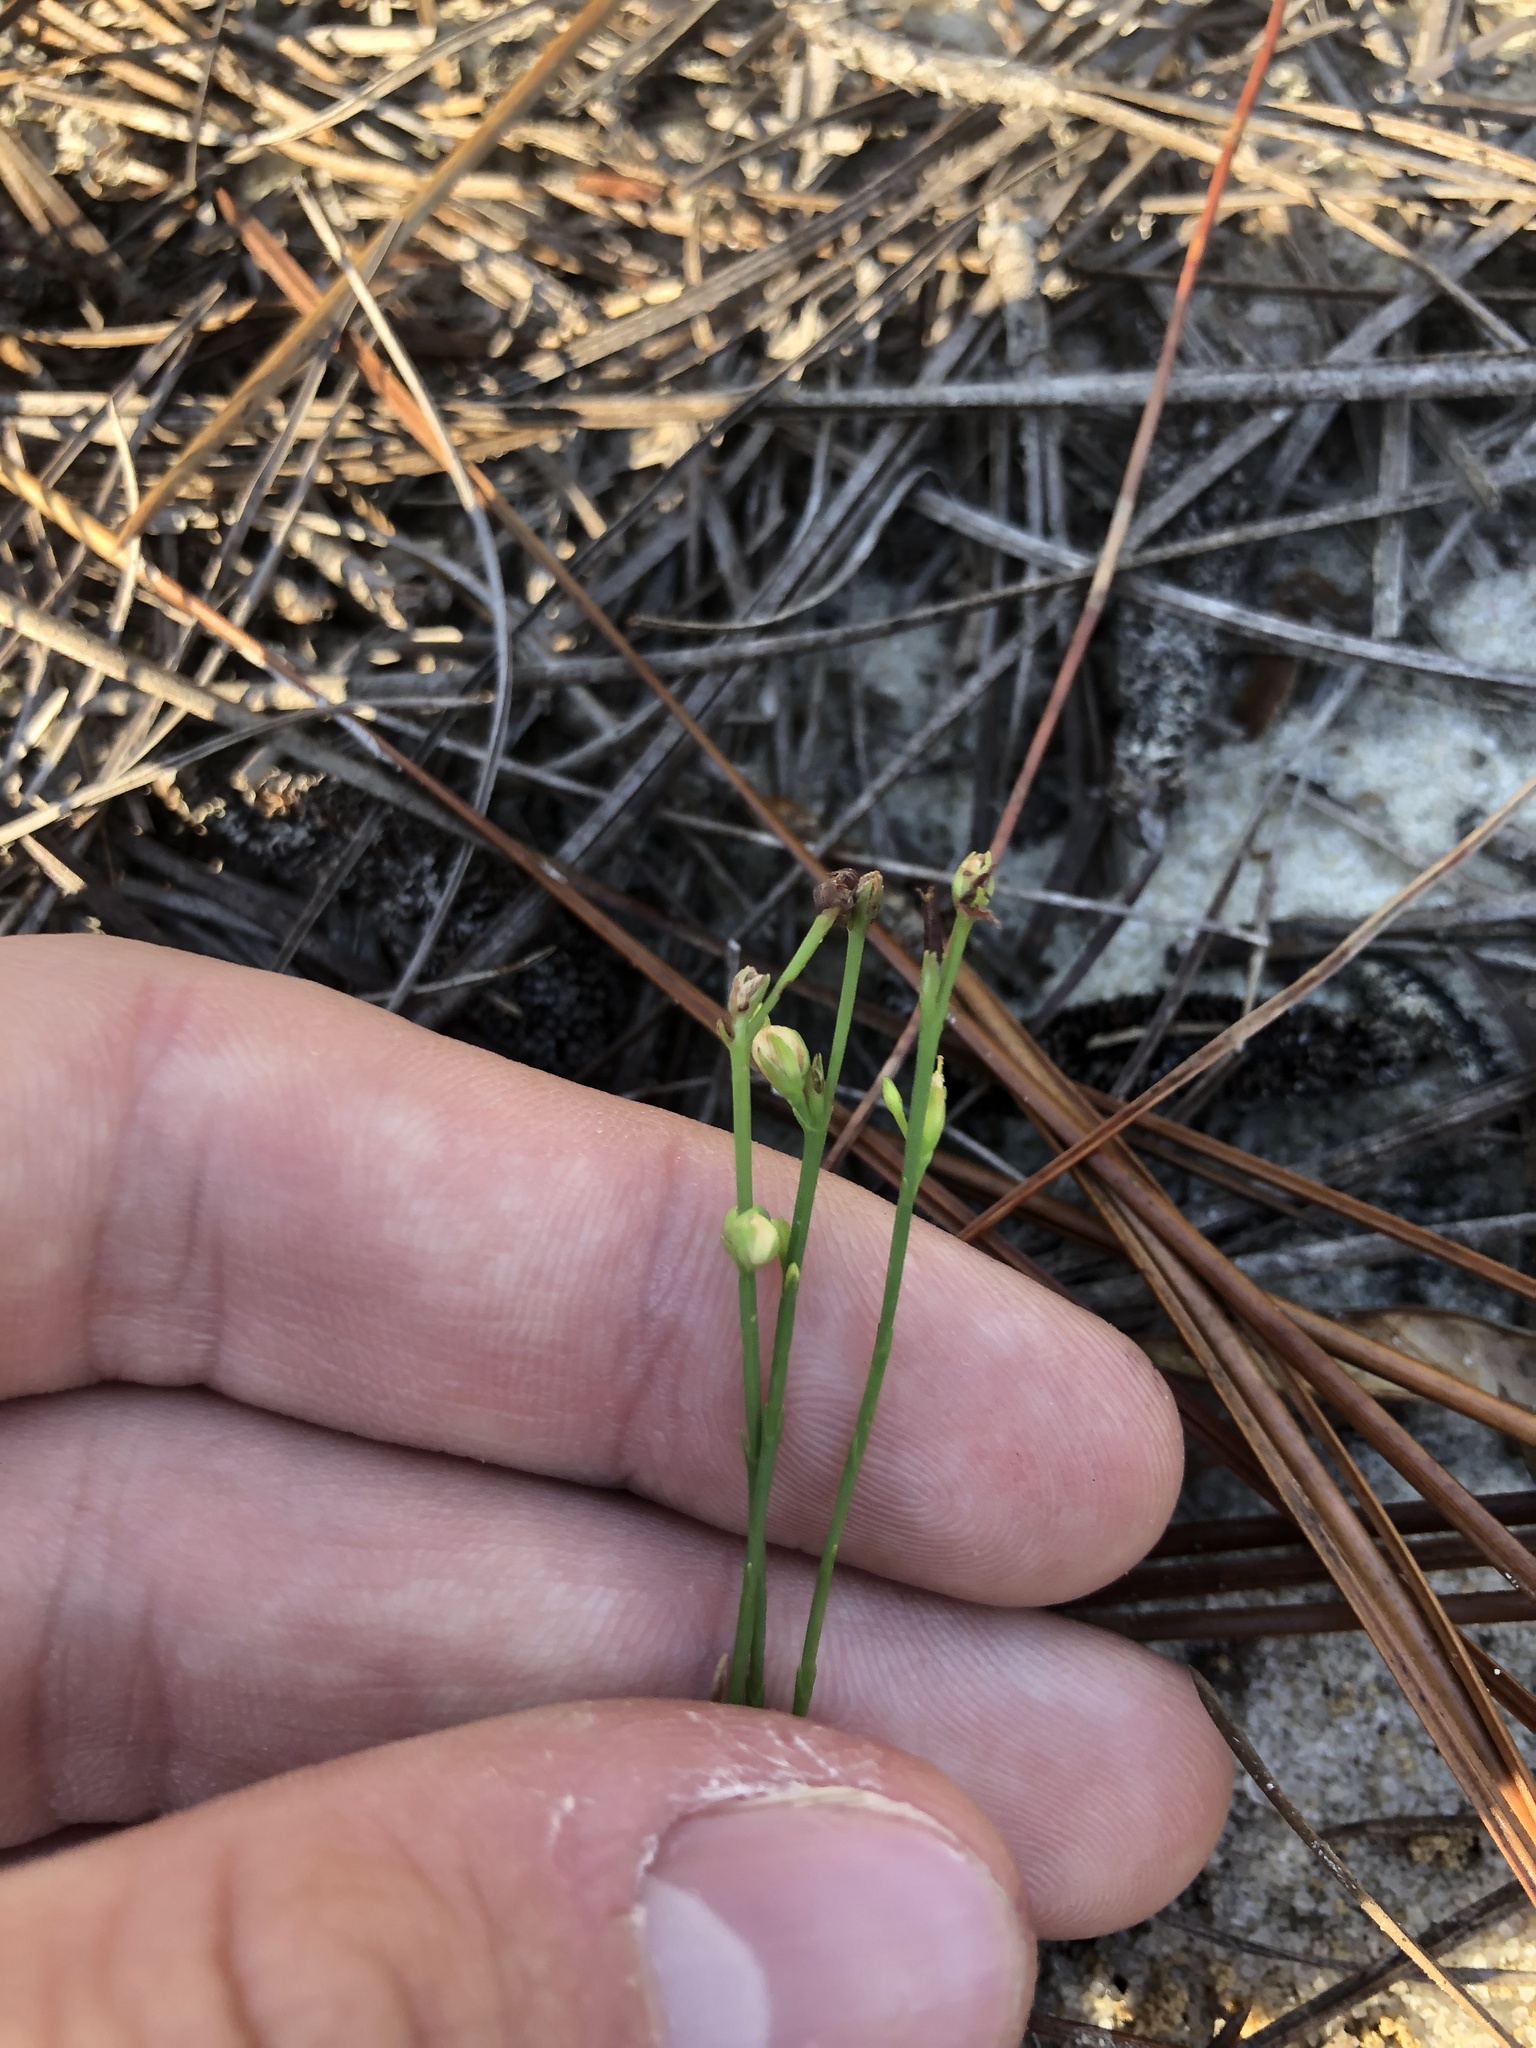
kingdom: Plantae
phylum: Tracheophyta
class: Magnoliopsida
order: Caryophyllales
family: Caryophyllaceae
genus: Stipulicida
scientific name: Stipulicida setacea
